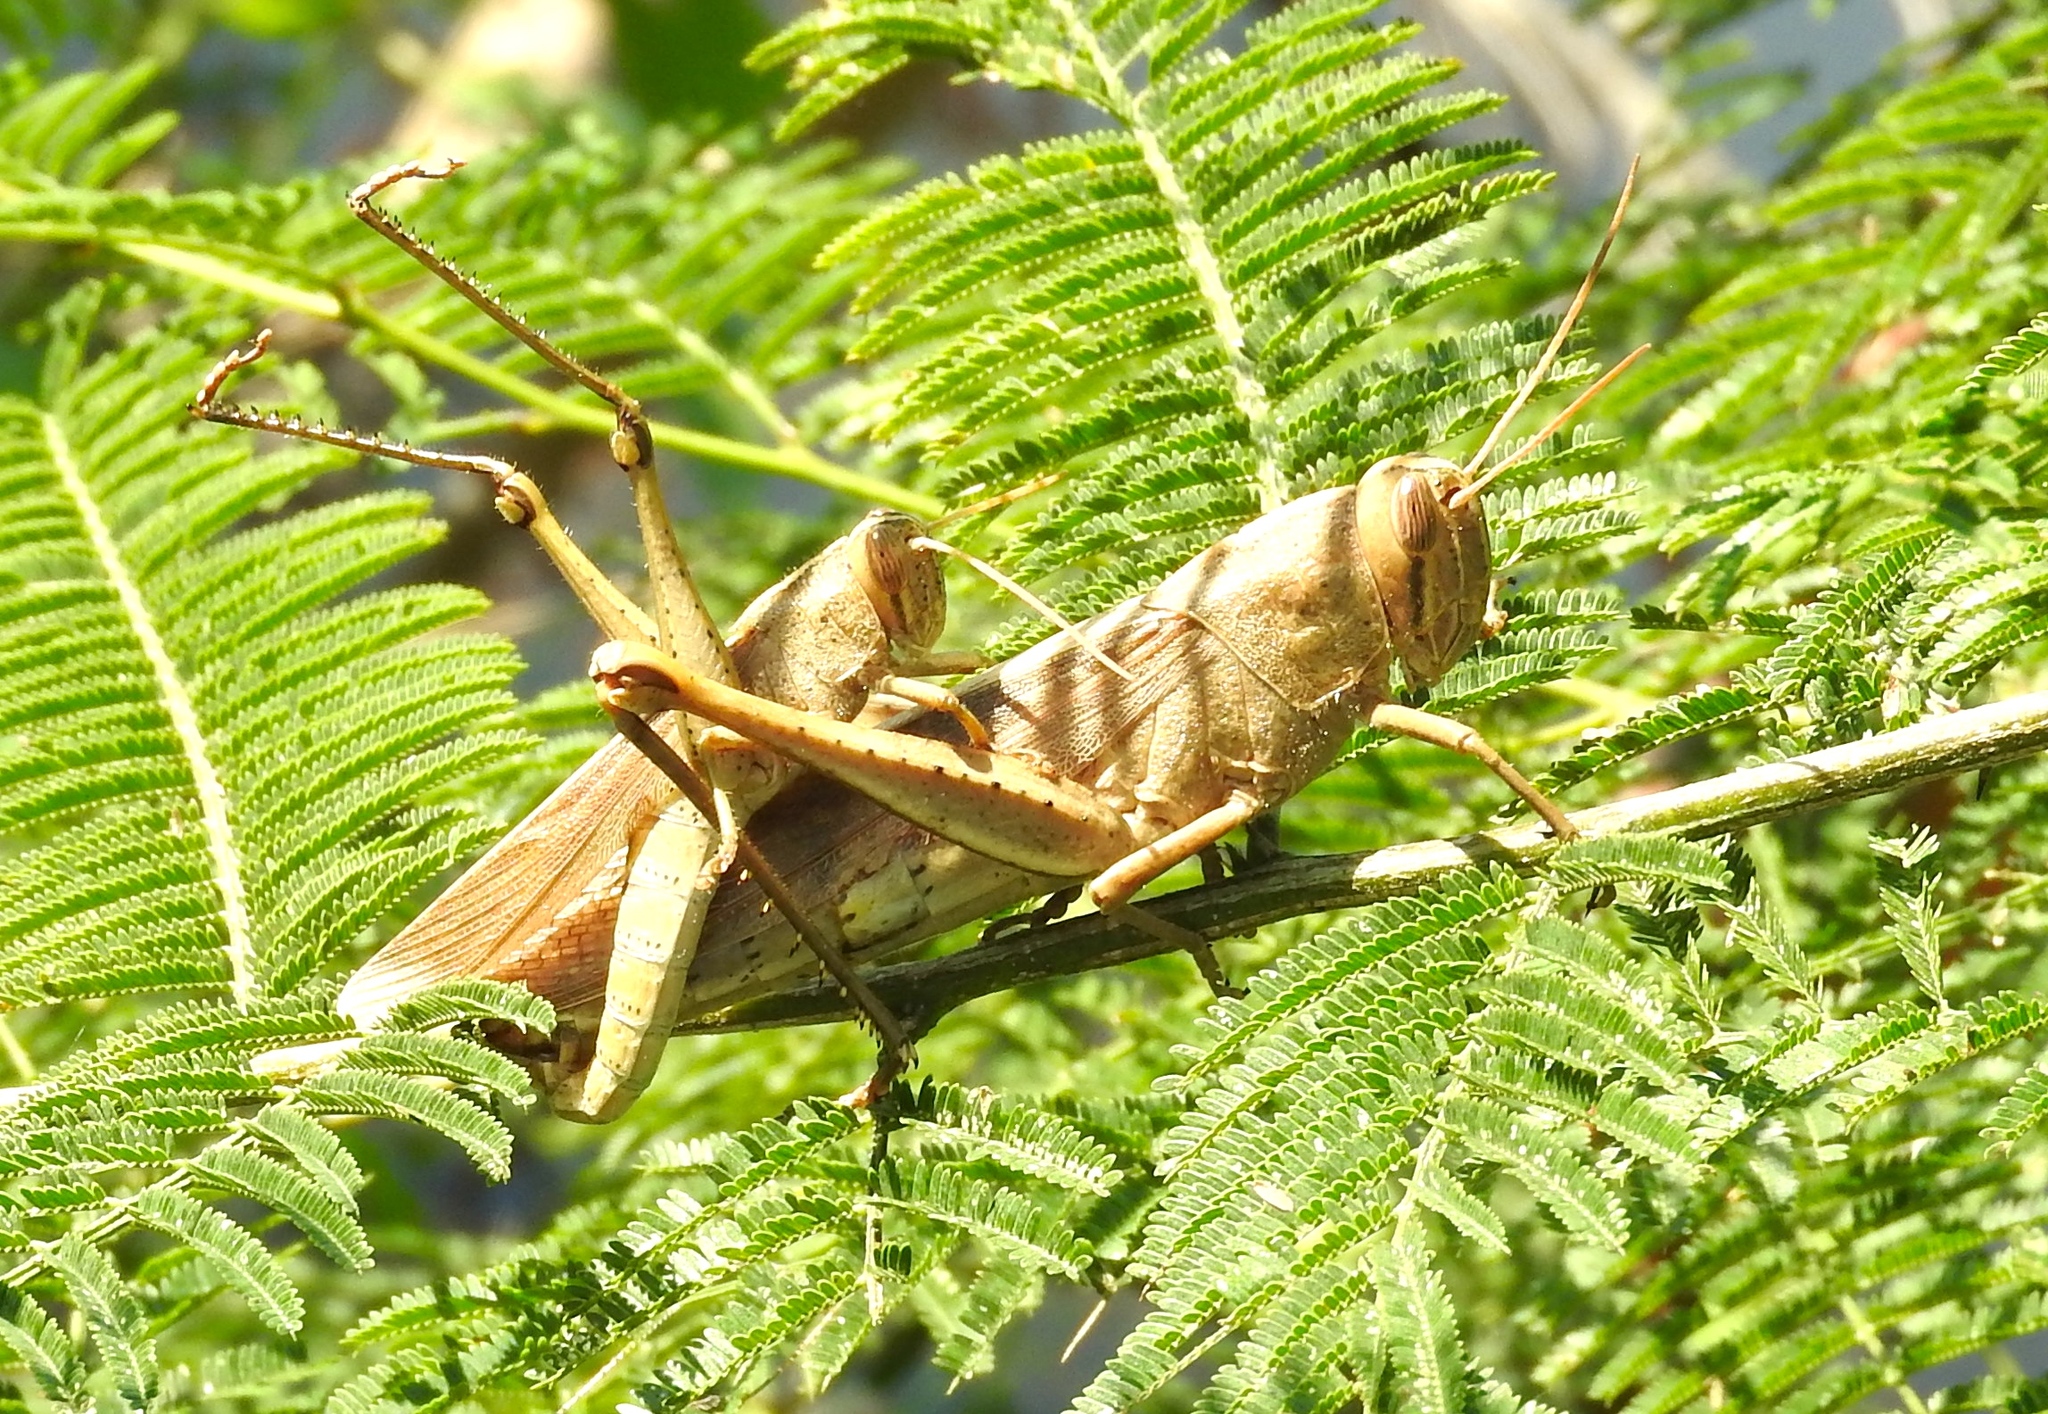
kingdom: Animalia
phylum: Arthropoda
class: Insecta
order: Orthoptera
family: Acrididae
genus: Schistocerca
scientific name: Schistocerca camerata
